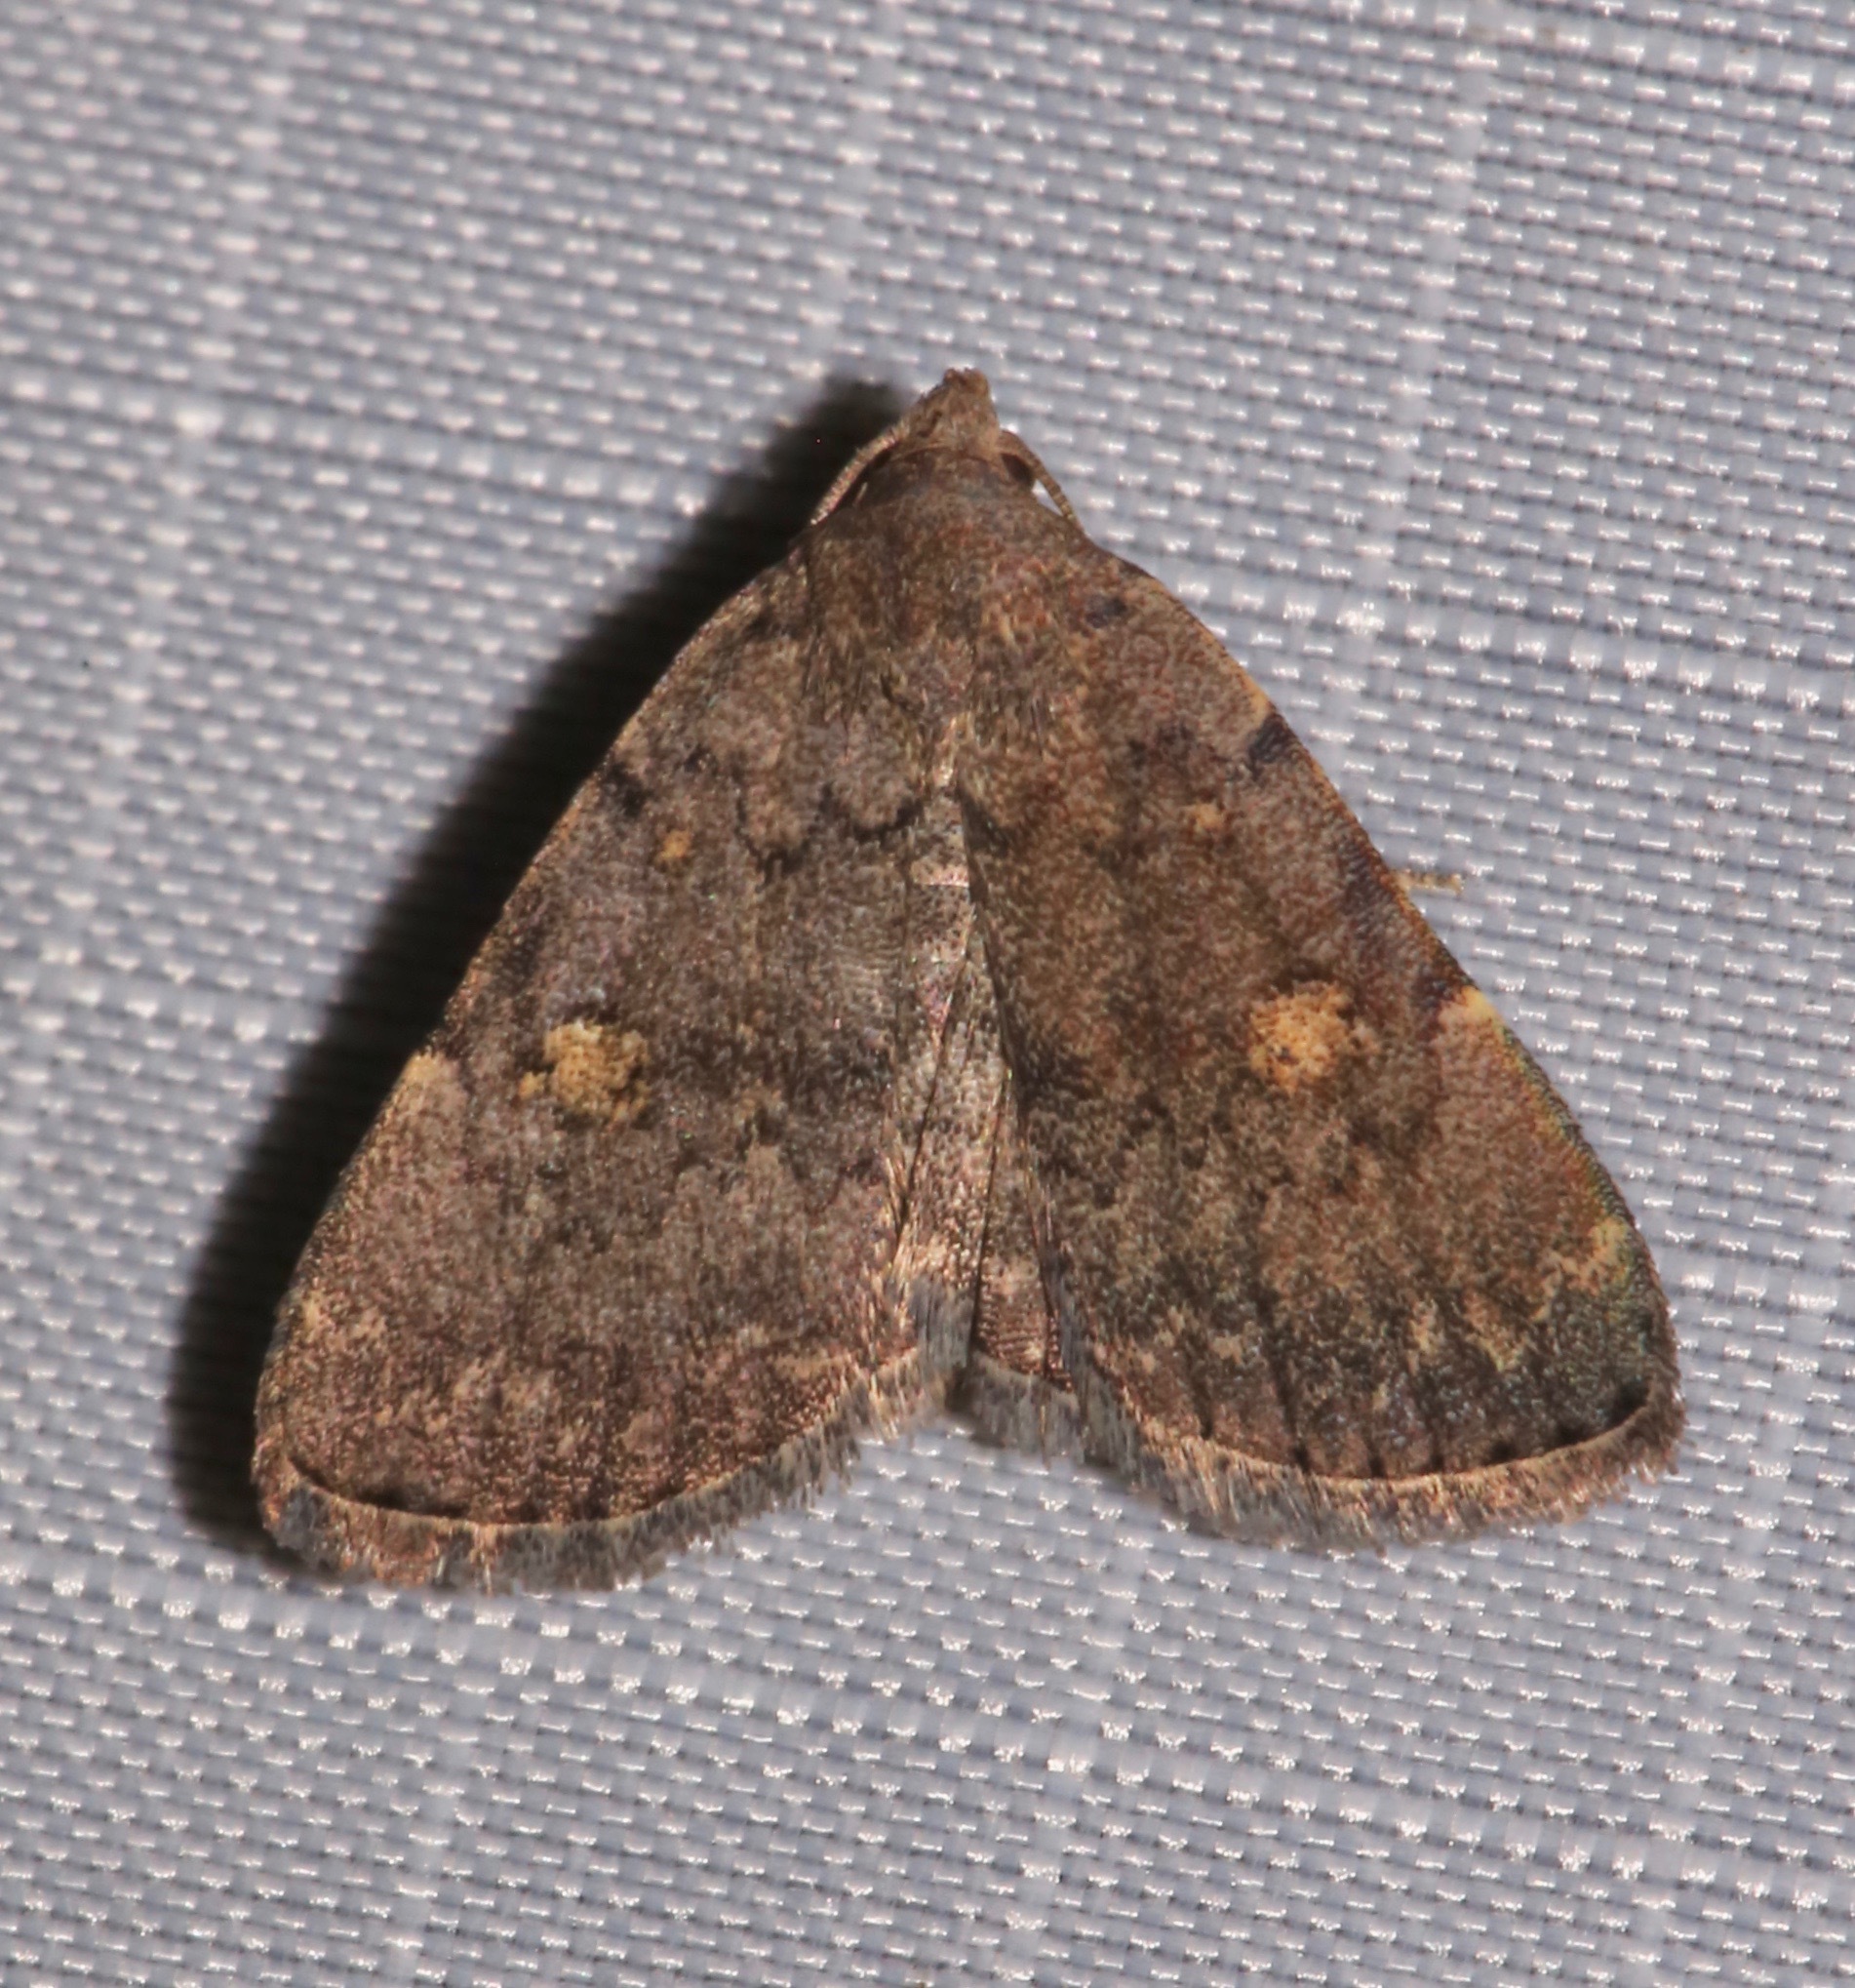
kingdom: Animalia
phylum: Arthropoda
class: Insecta
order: Lepidoptera
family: Erebidae
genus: Idia
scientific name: Idia aemula
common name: Common idia moth
